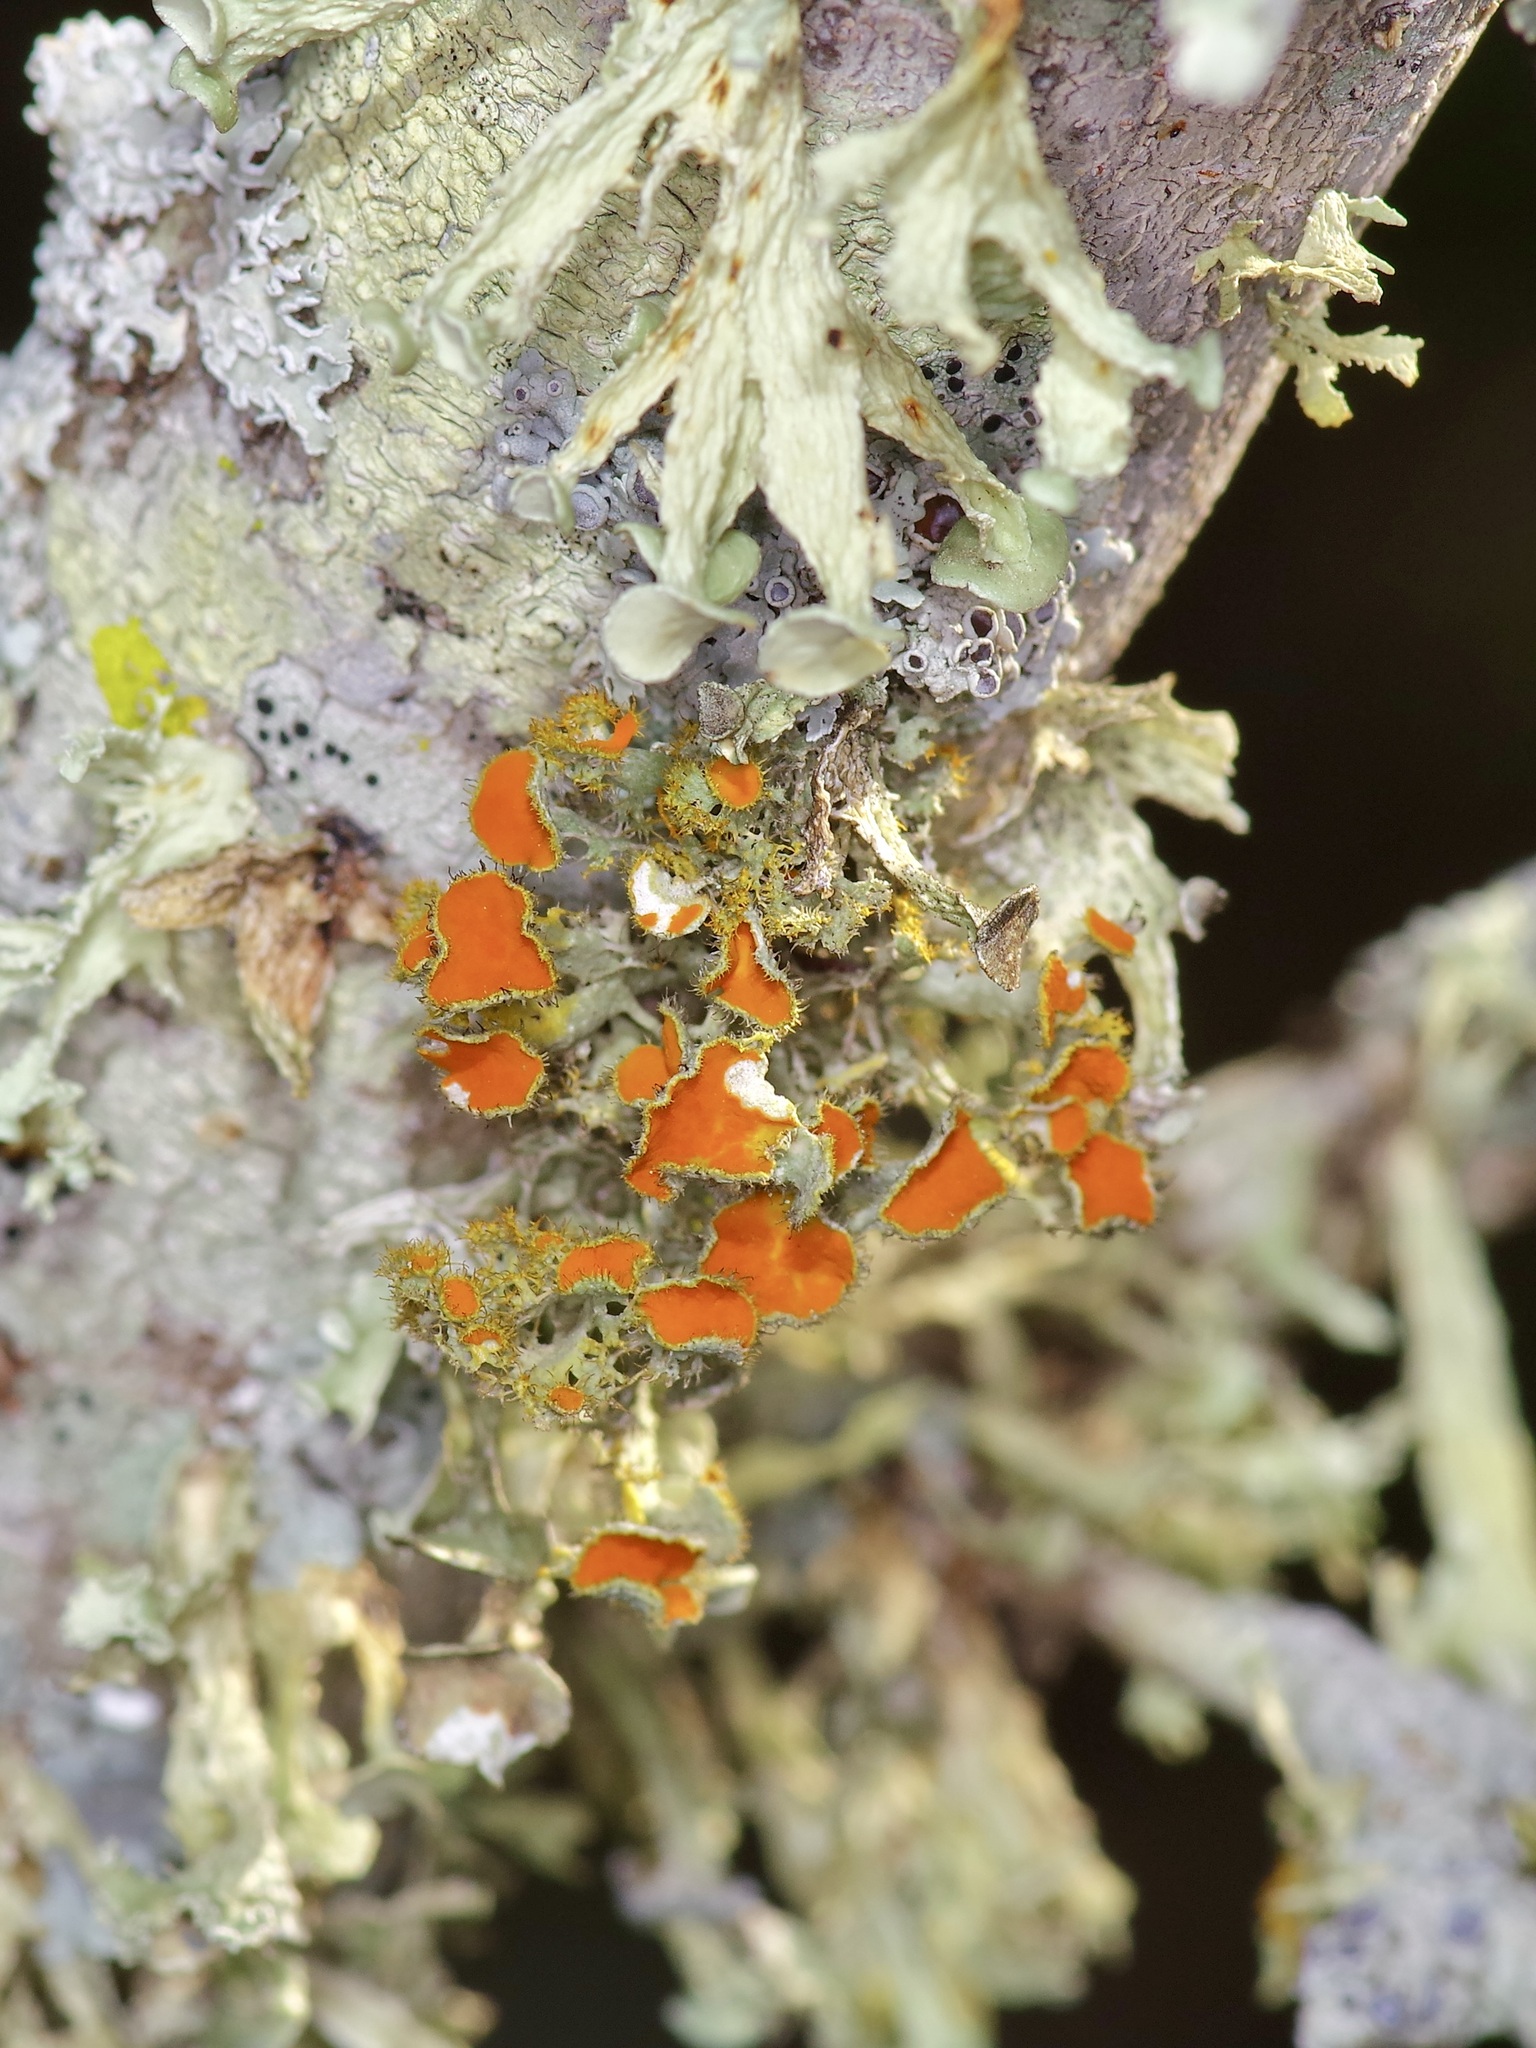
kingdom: Fungi
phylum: Ascomycota
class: Lecanoromycetes
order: Teloschistales
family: Teloschistaceae
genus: Niorma
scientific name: Niorma chrysophthalma
